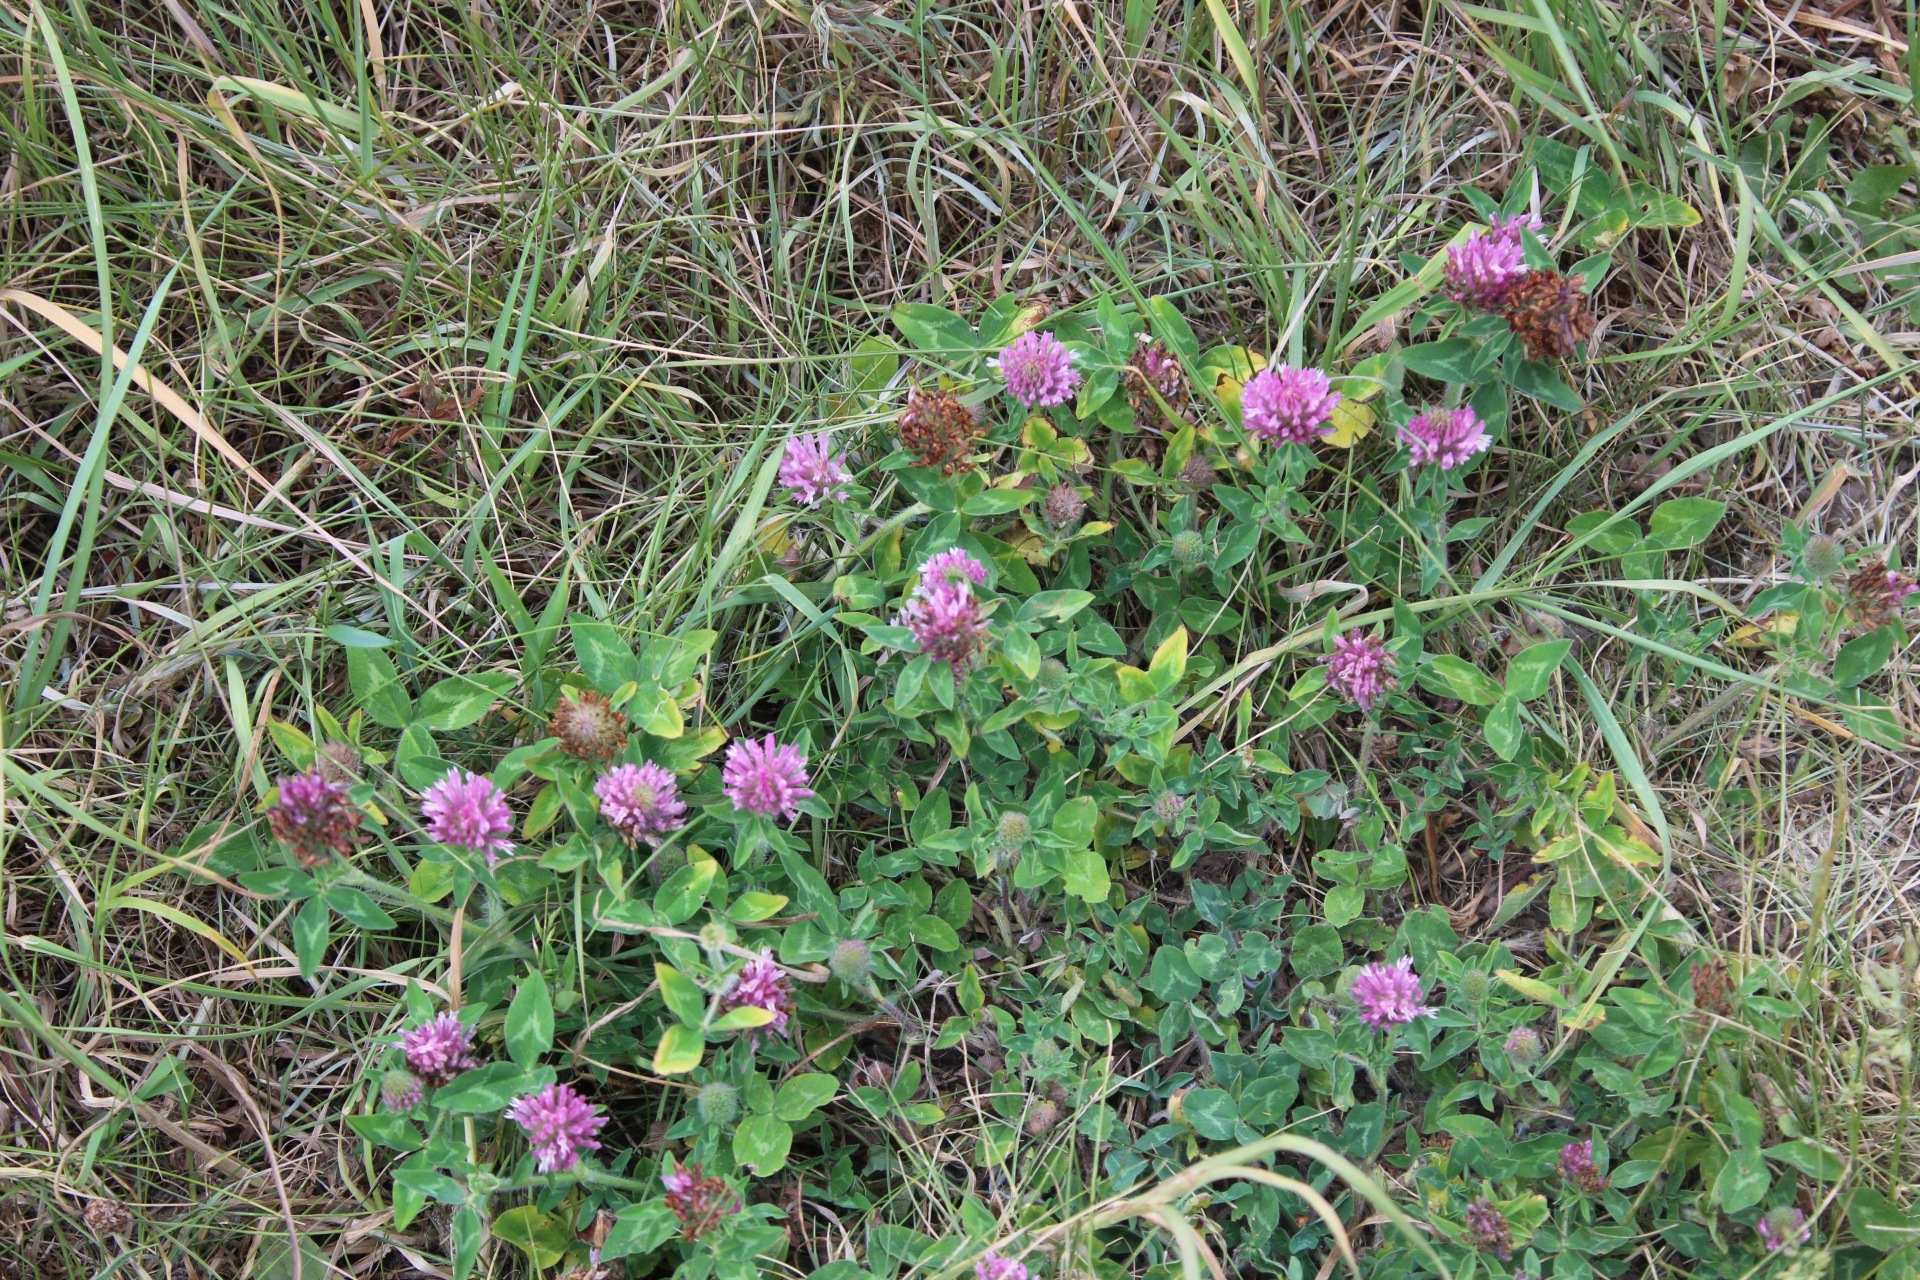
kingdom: Plantae
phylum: Tracheophyta
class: Magnoliopsida
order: Fabales
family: Fabaceae
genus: Trifolium
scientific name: Trifolium pratense
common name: Red clover
